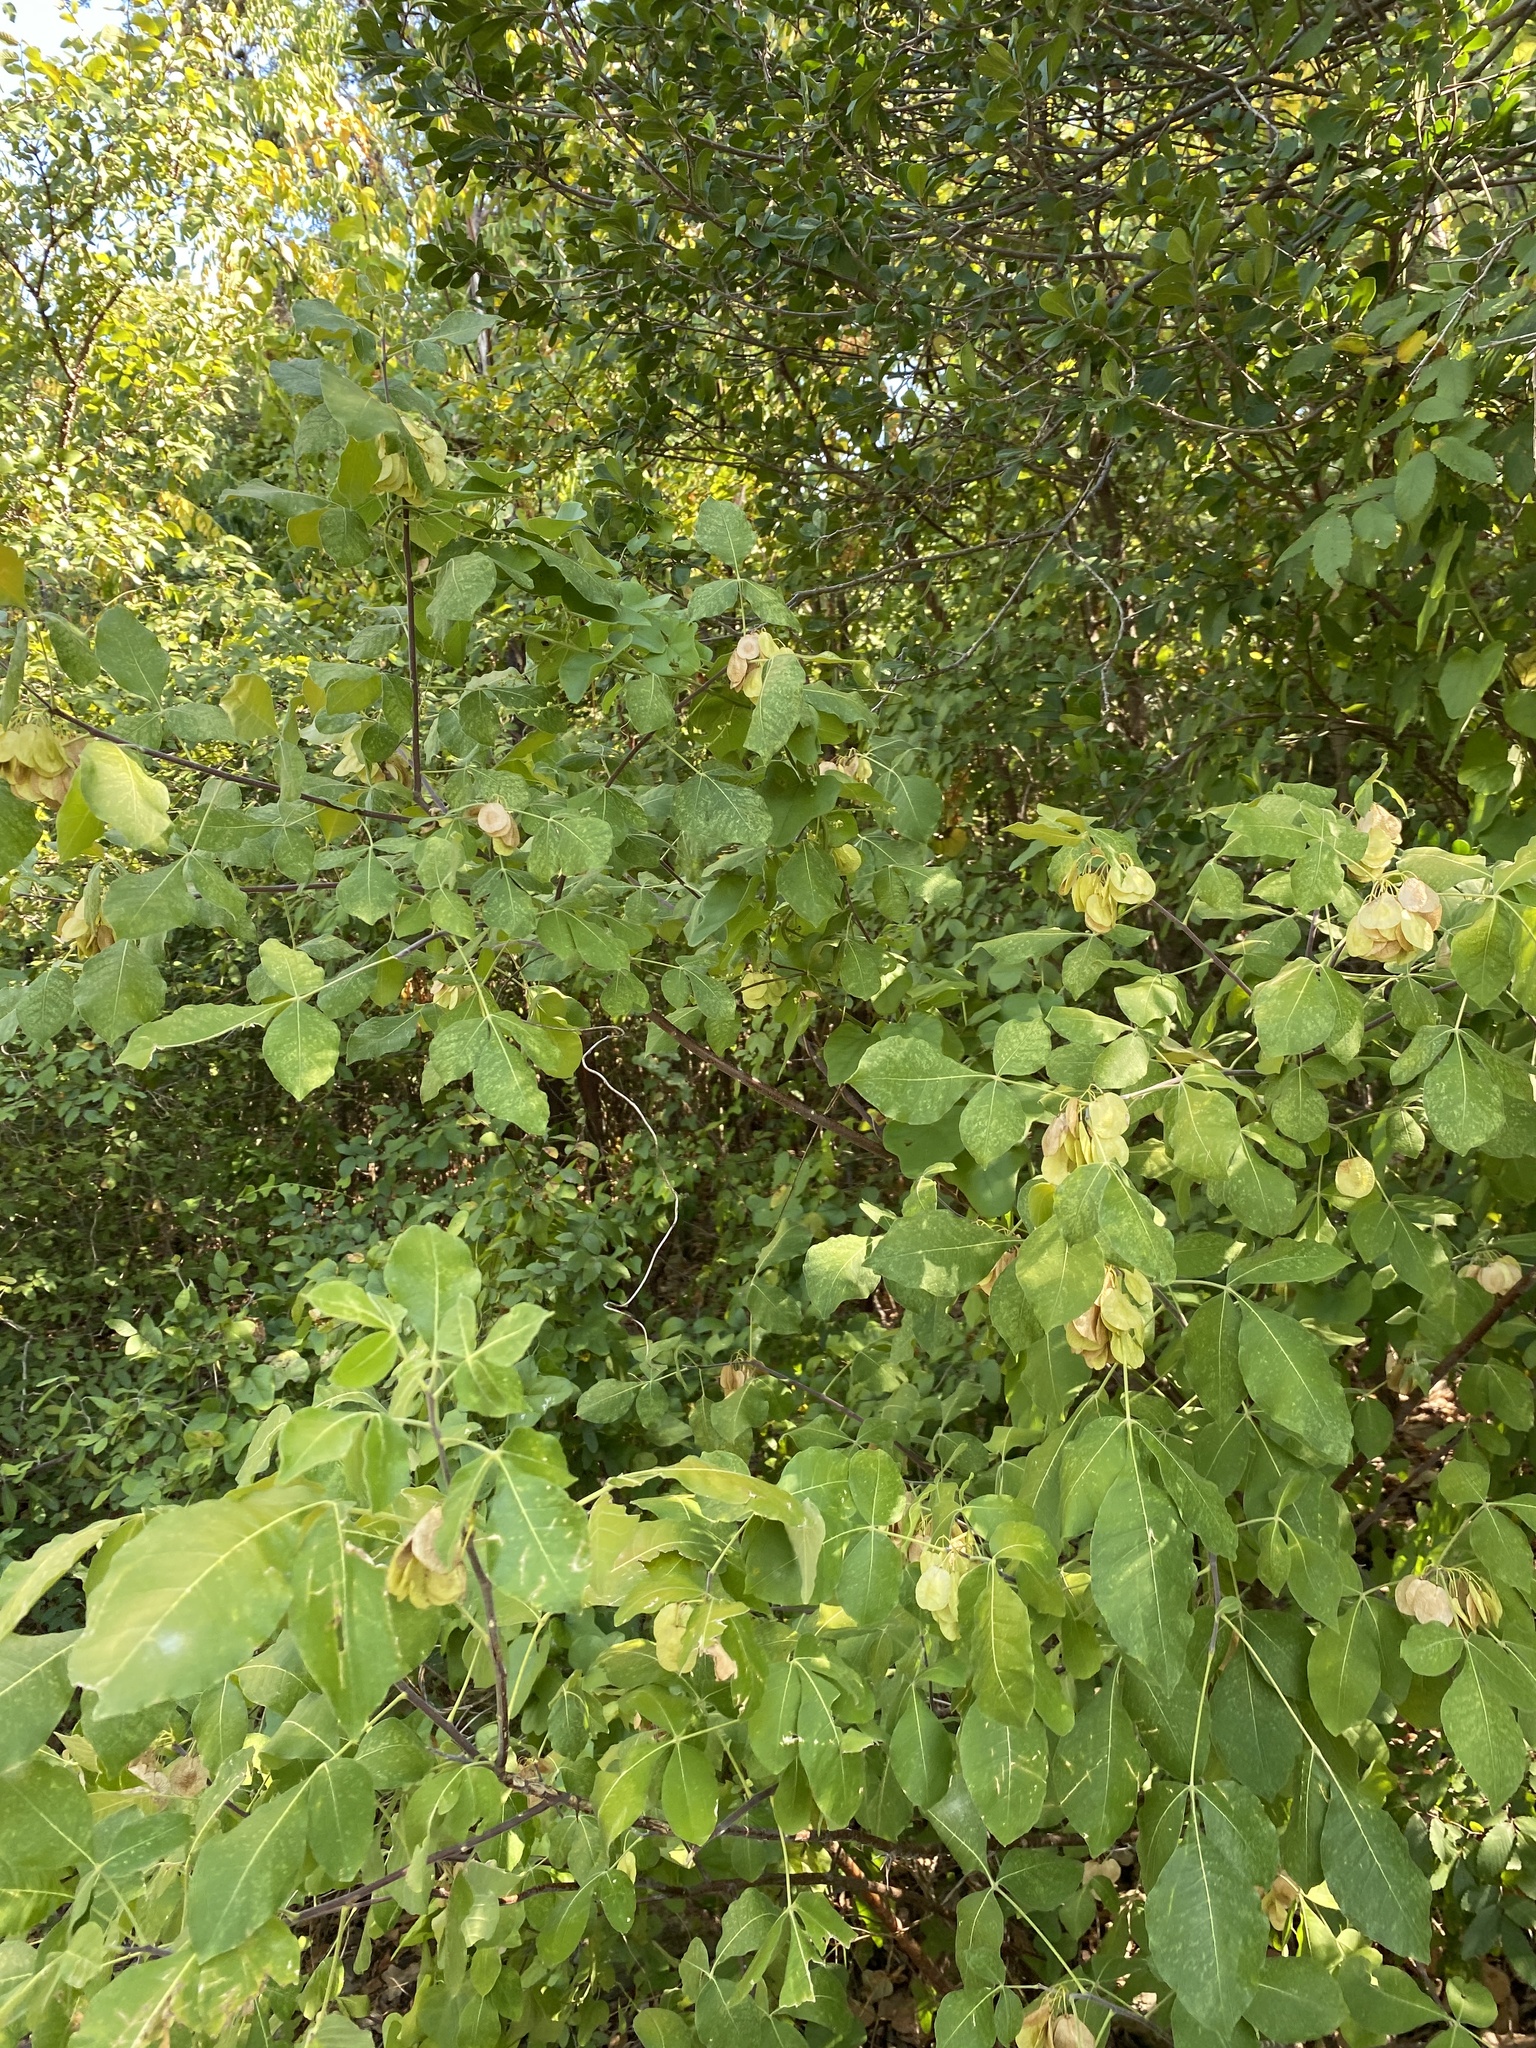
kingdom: Plantae
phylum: Tracheophyta
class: Magnoliopsida
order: Sapindales
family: Rutaceae
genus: Ptelea
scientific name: Ptelea trifoliata
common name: Common hop-tree
